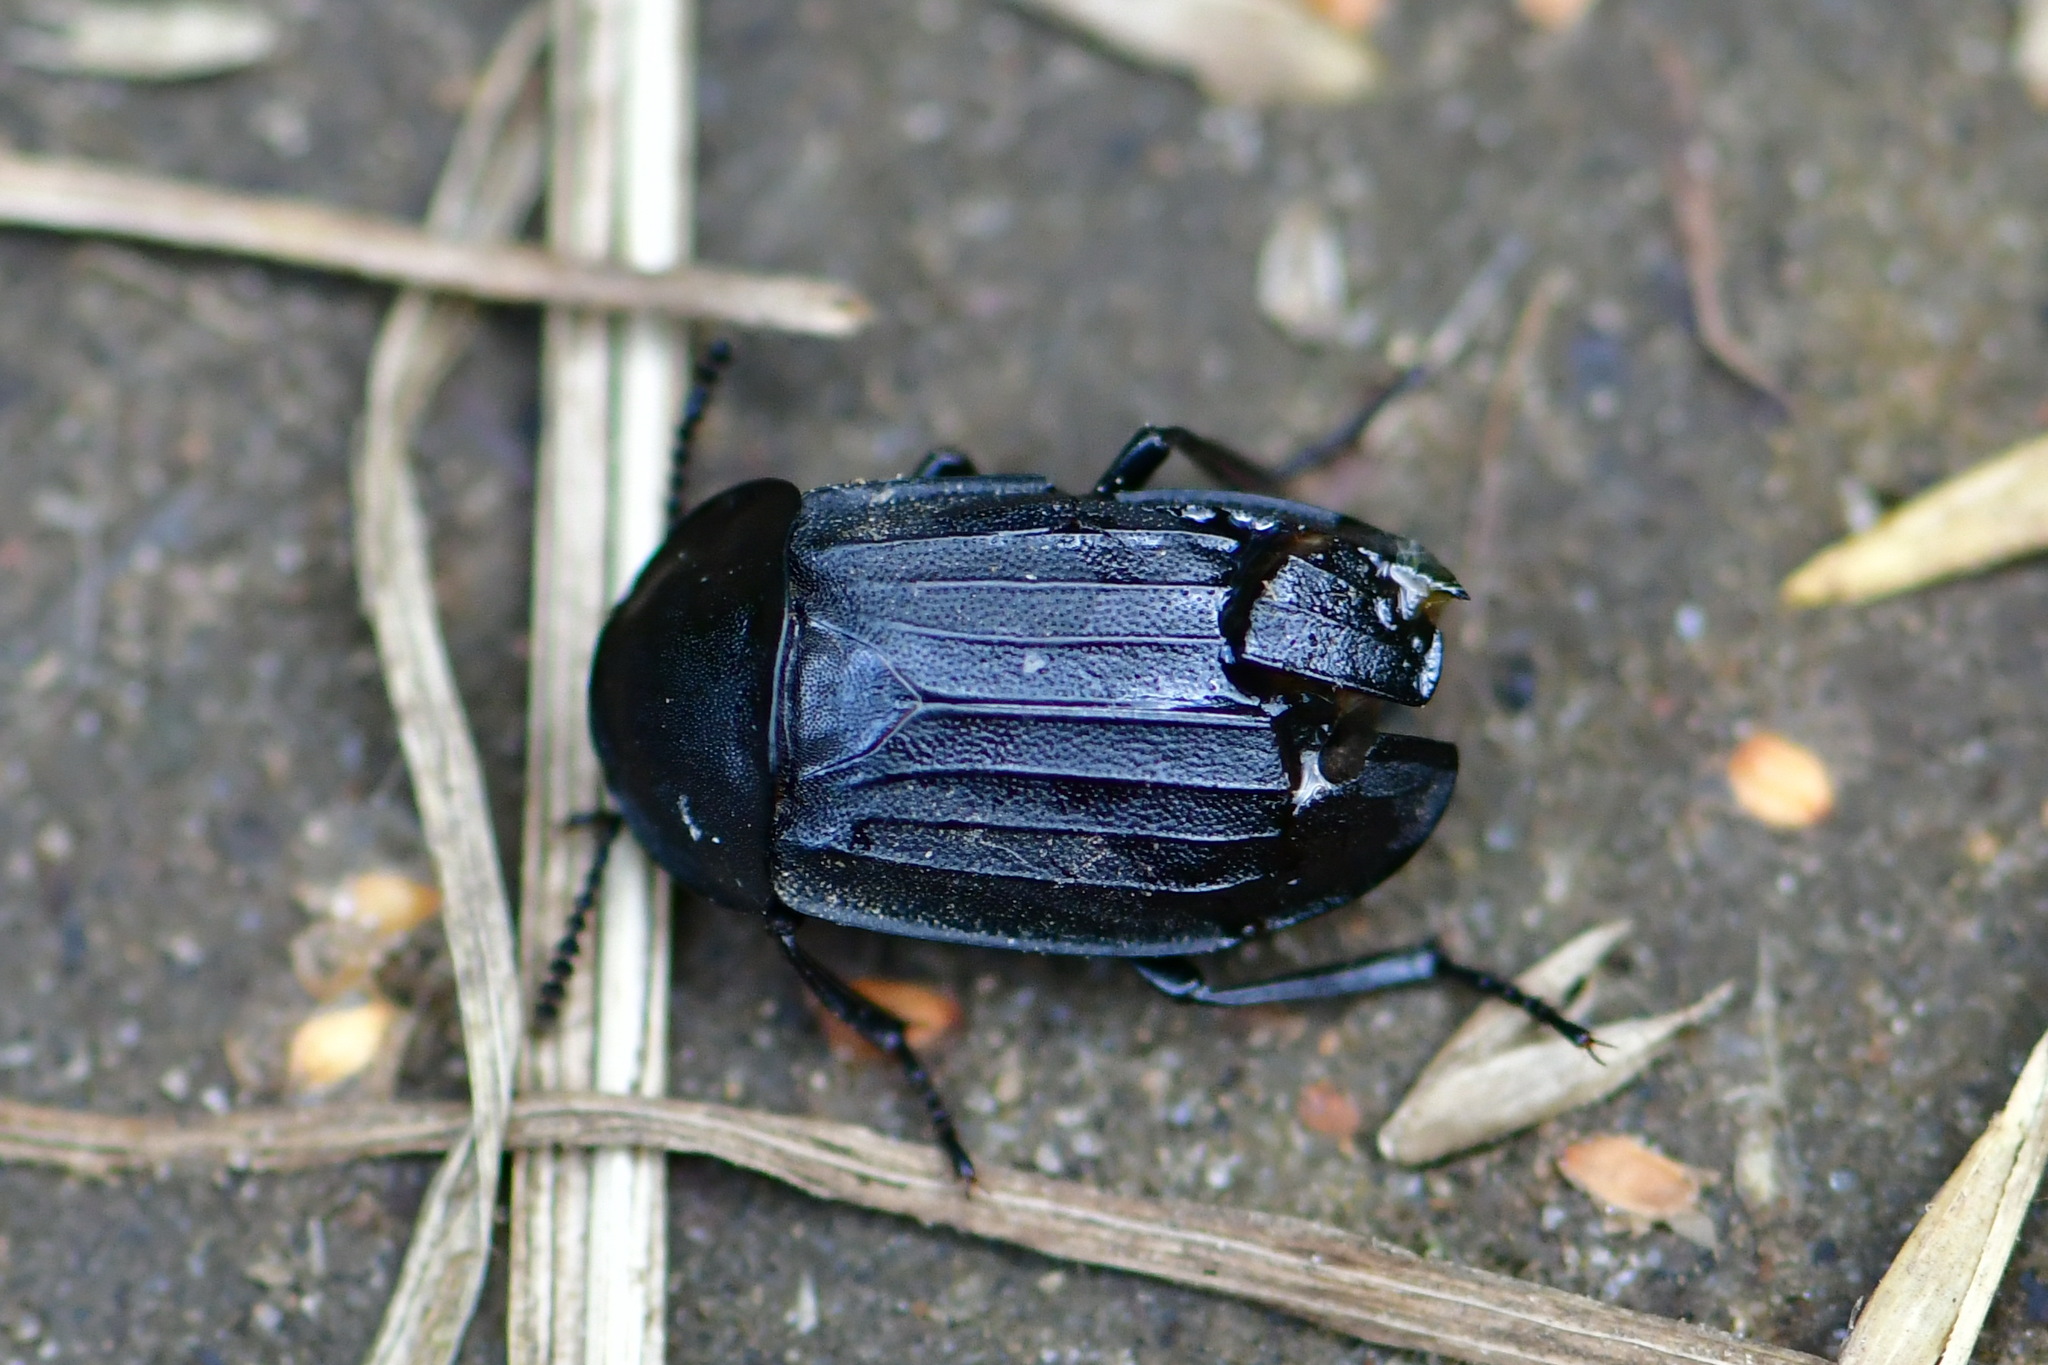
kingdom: Animalia
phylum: Arthropoda
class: Insecta
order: Coleoptera
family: Staphylinidae
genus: Silpha
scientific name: Silpha atrata
